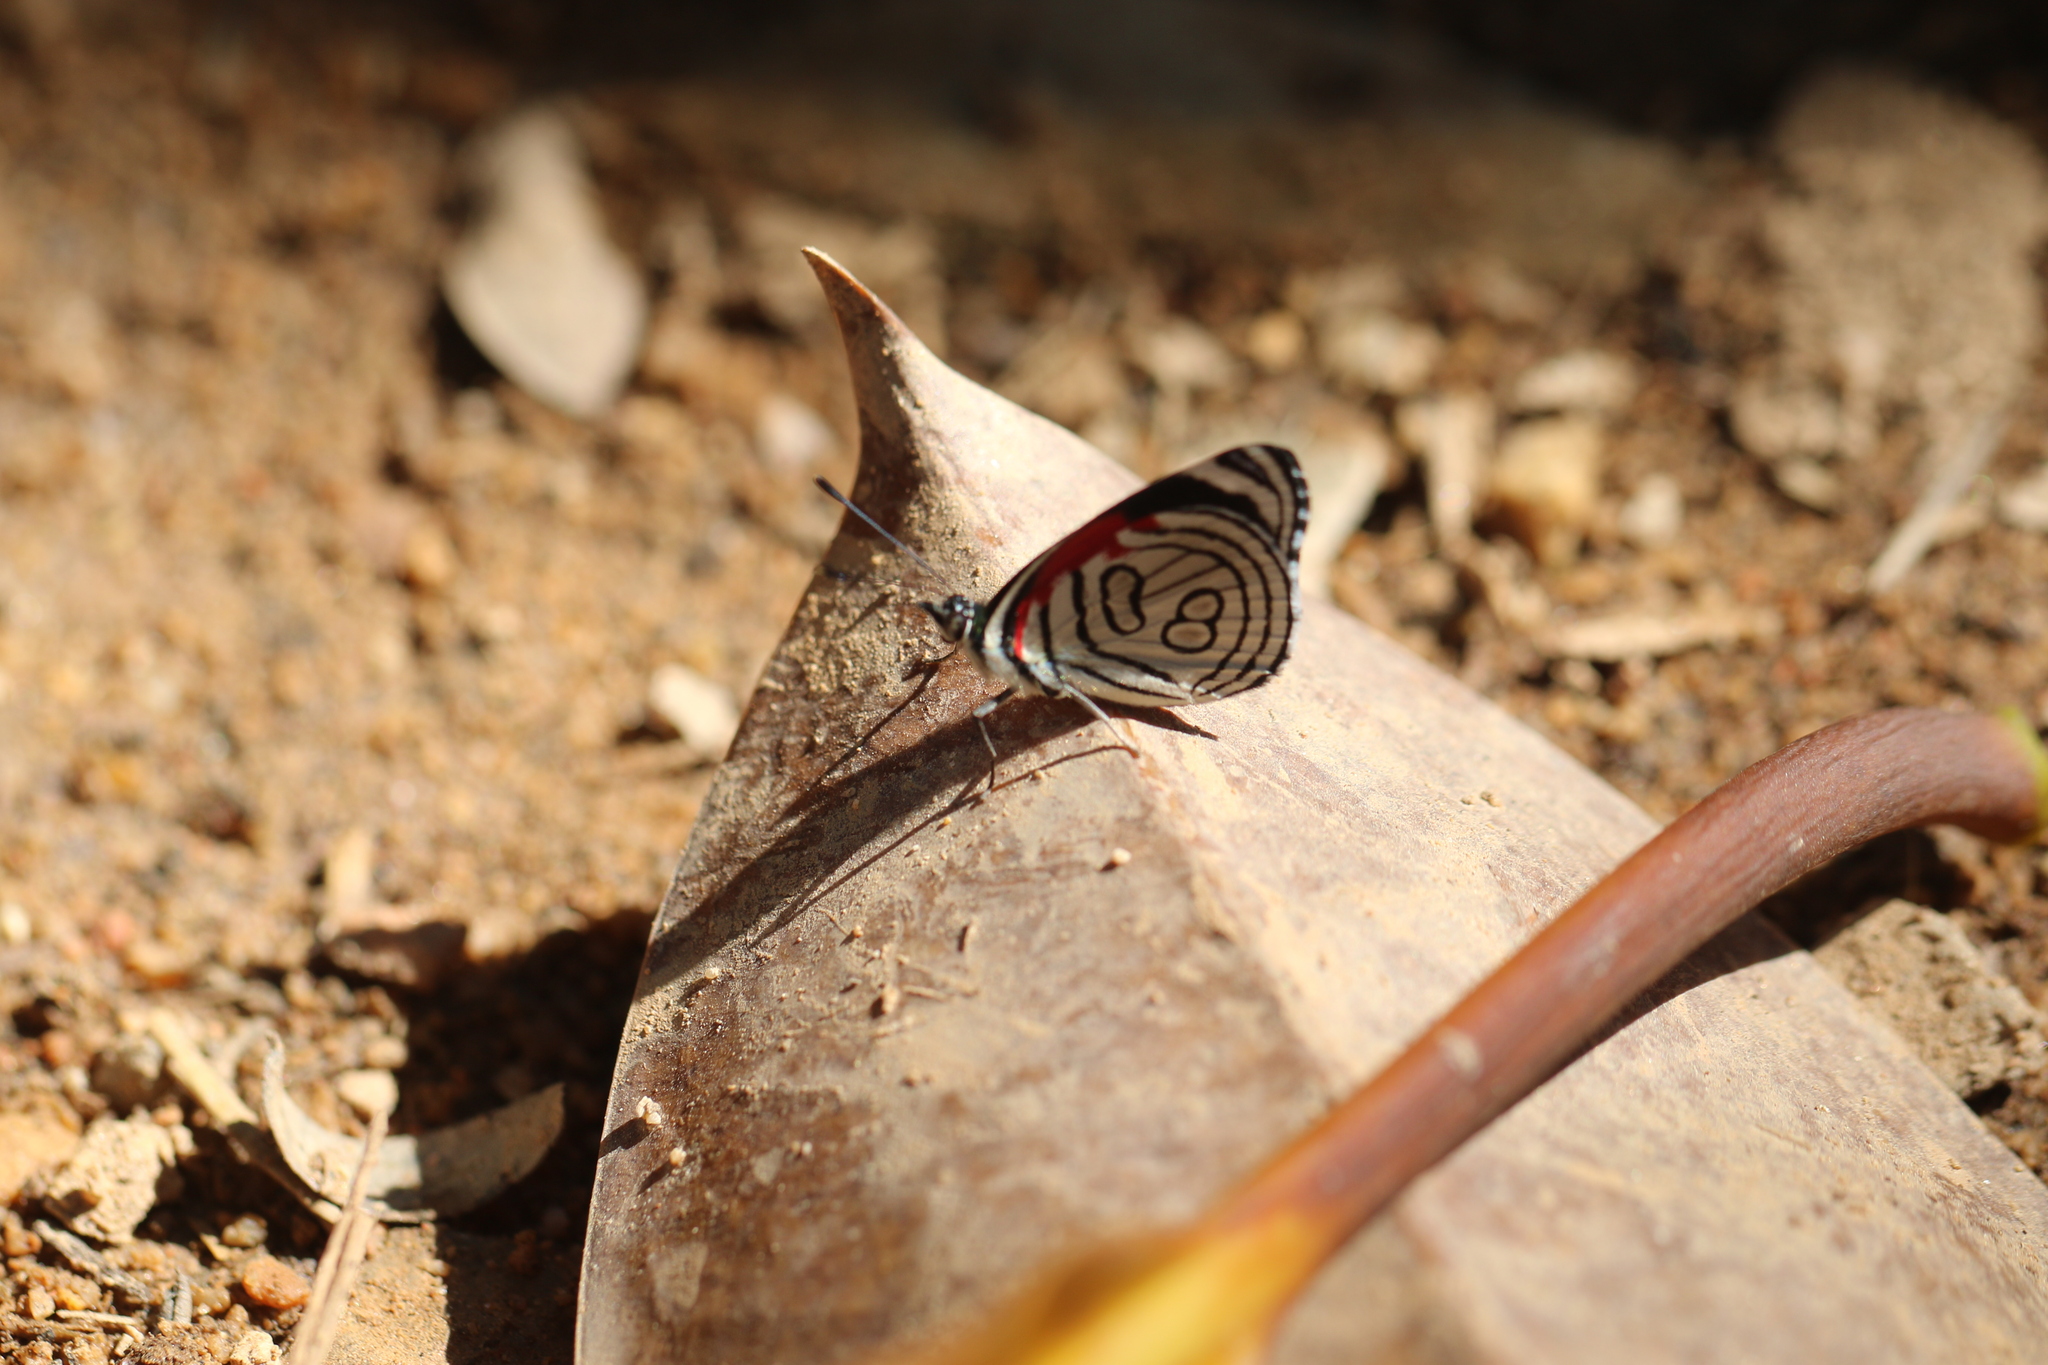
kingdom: Animalia
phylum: Arthropoda
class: Insecta
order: Lepidoptera
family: Nymphalidae
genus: Diaethria
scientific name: Diaethria candrena
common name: Number eighty
